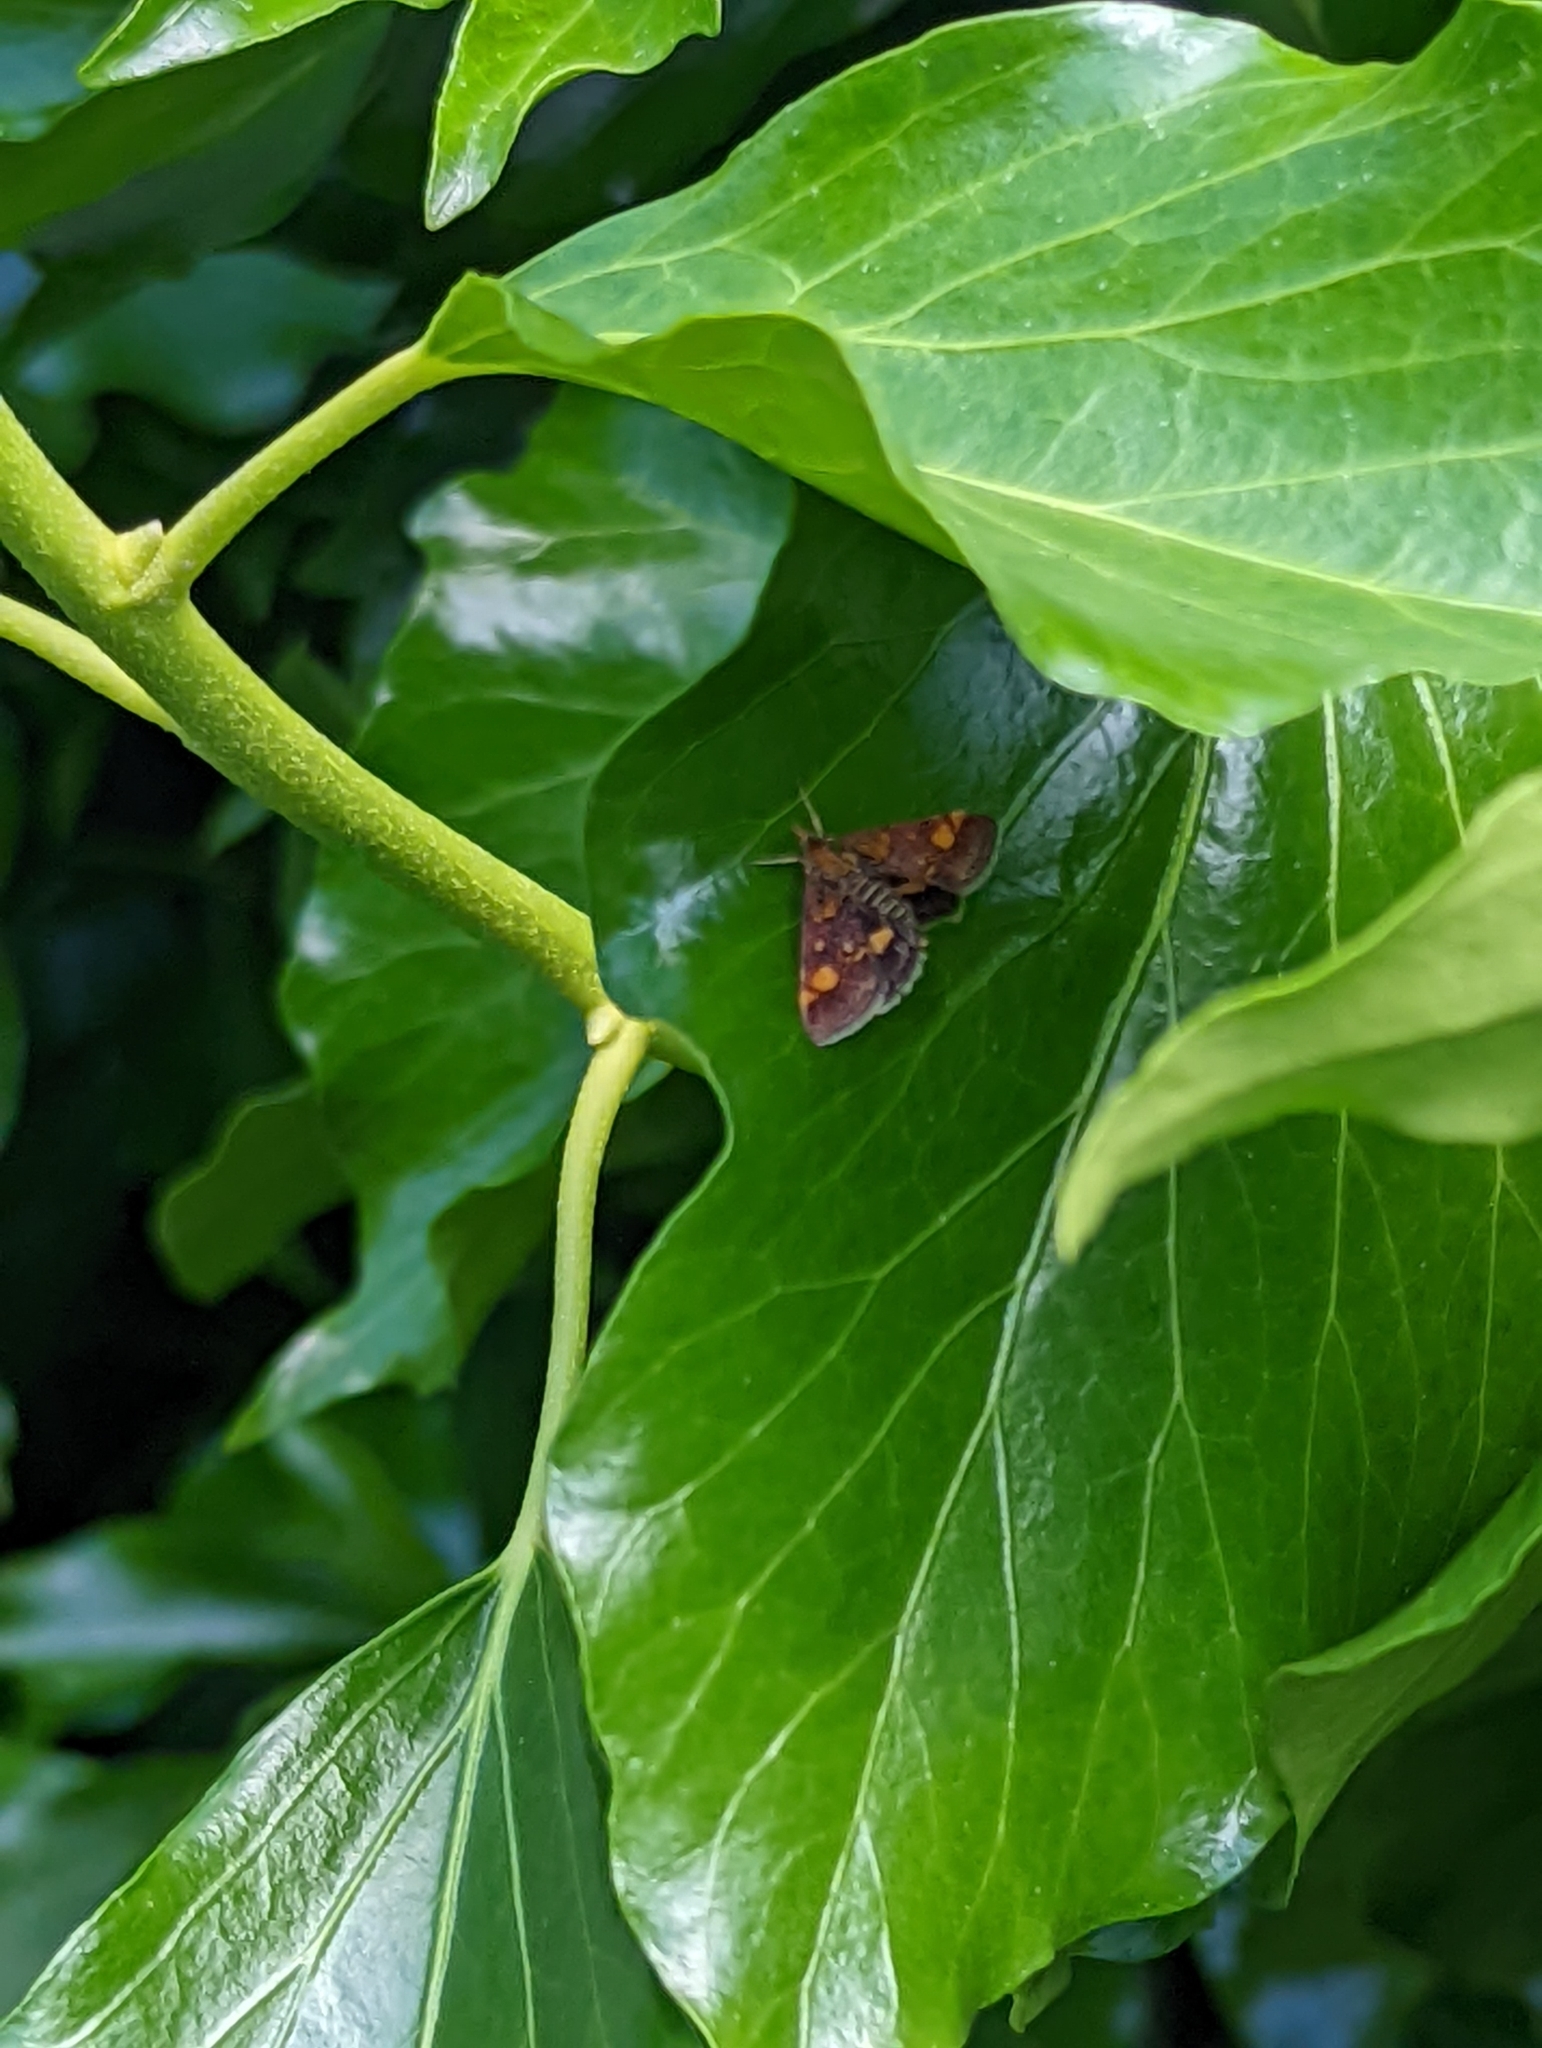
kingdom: Animalia
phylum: Arthropoda
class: Insecta
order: Lepidoptera
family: Crambidae
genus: Pyrausta
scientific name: Pyrausta aurata
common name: Small purple & gold
